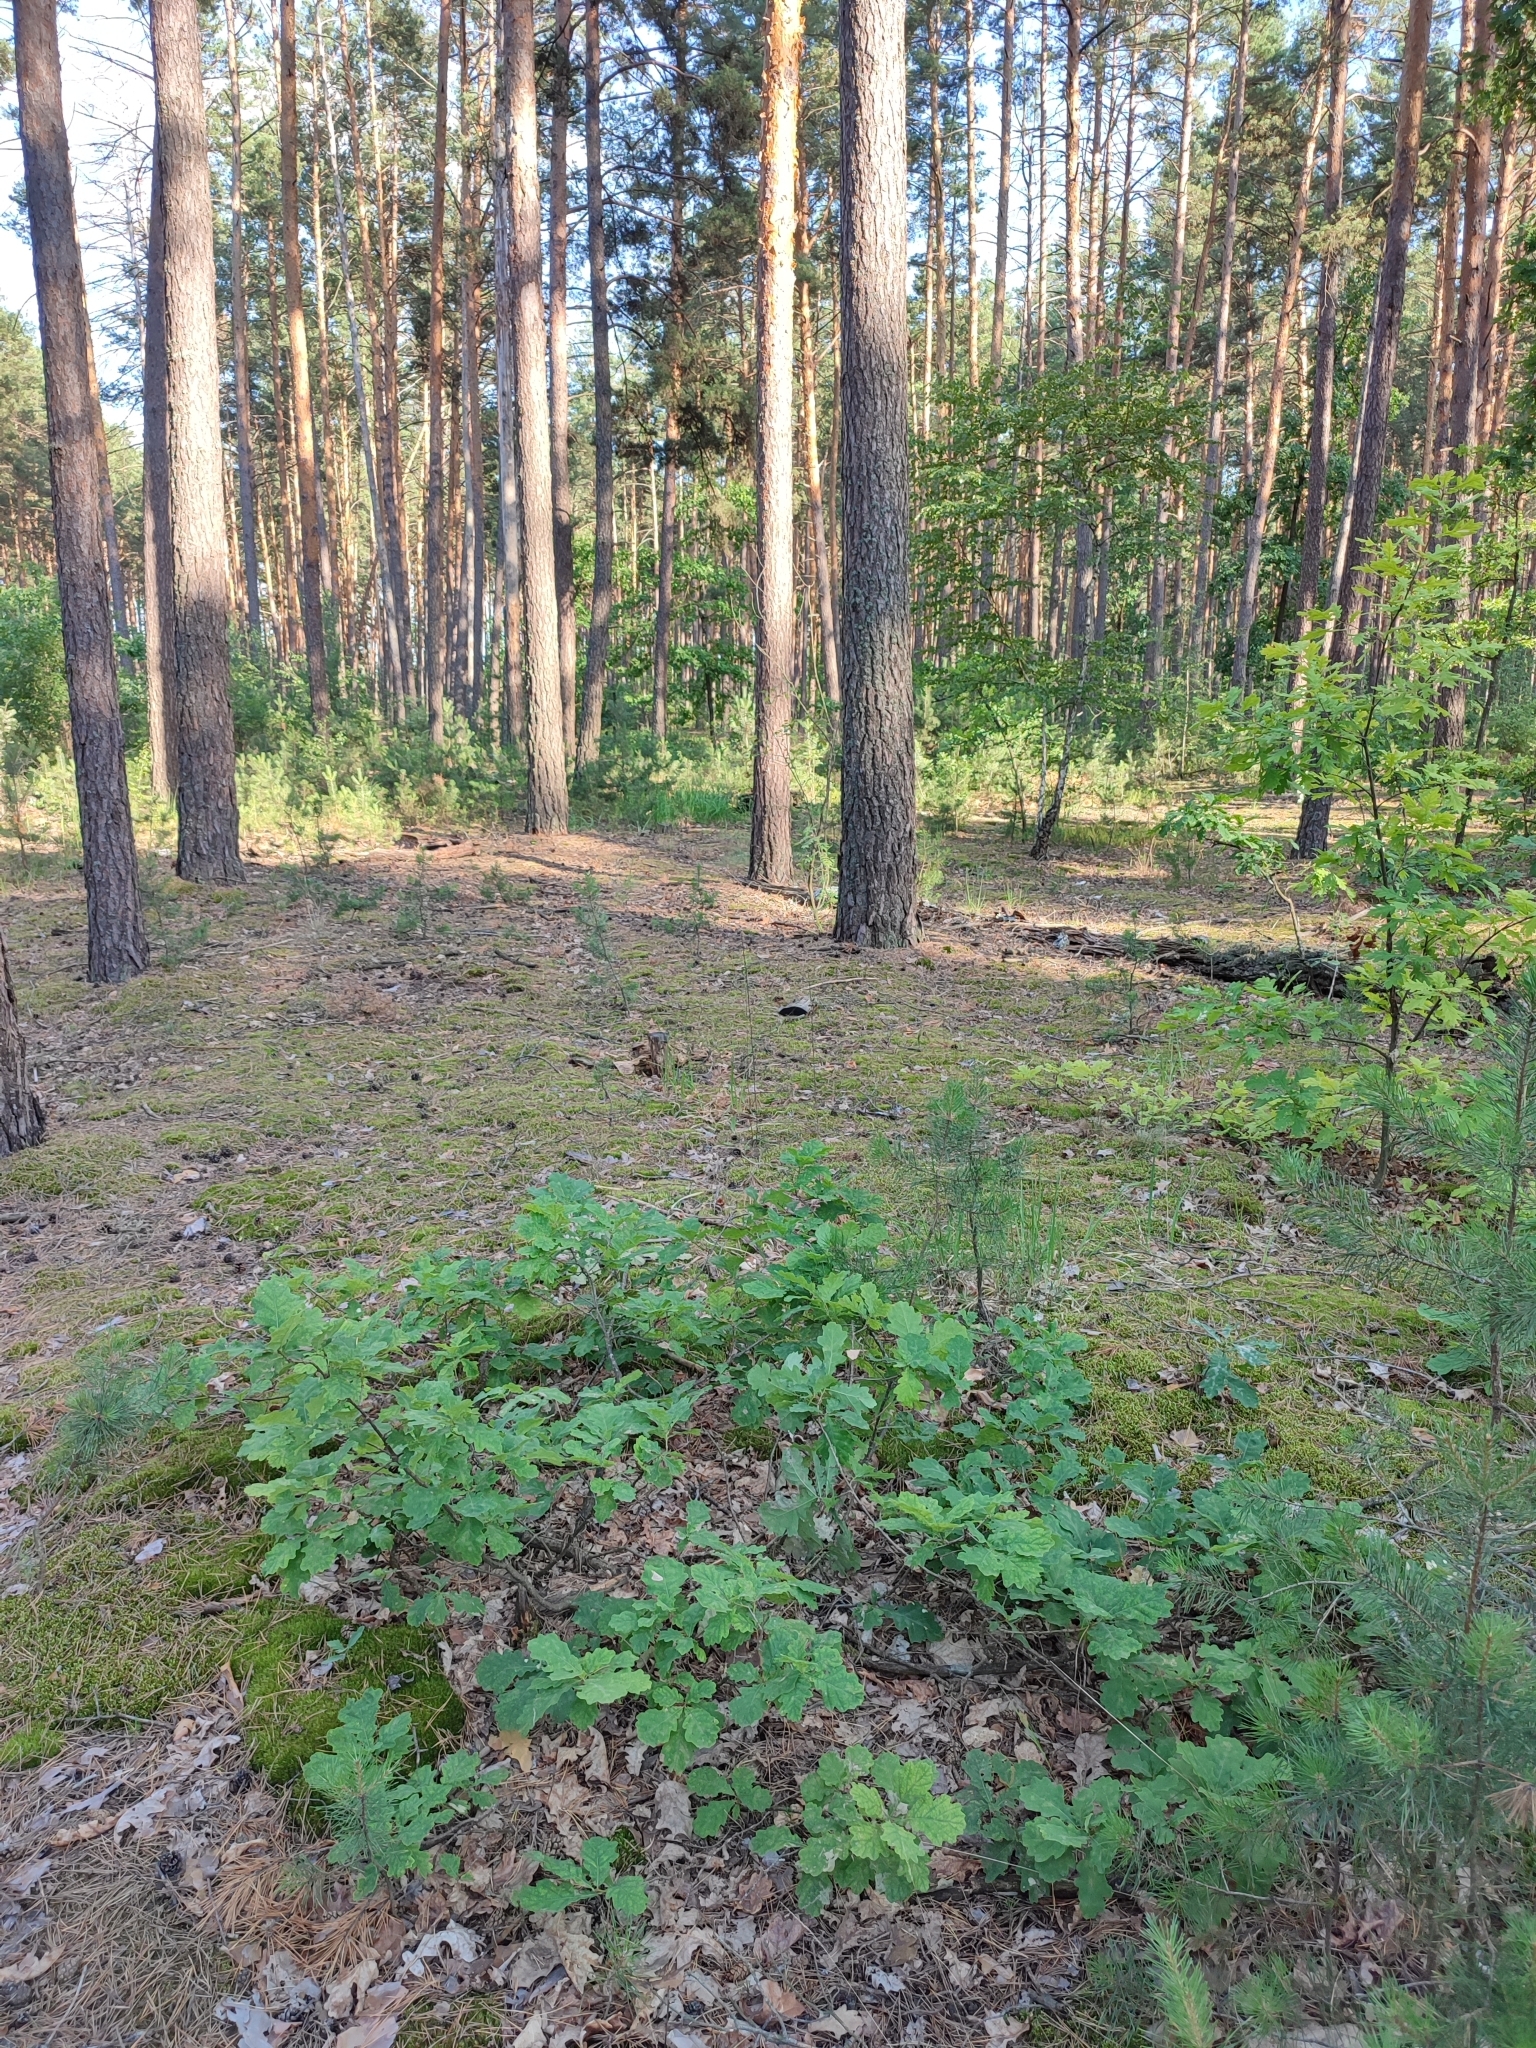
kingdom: Plantae
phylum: Tracheophyta
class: Magnoliopsida
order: Fagales
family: Fagaceae
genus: Quercus
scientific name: Quercus robur
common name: Pedunculate oak
